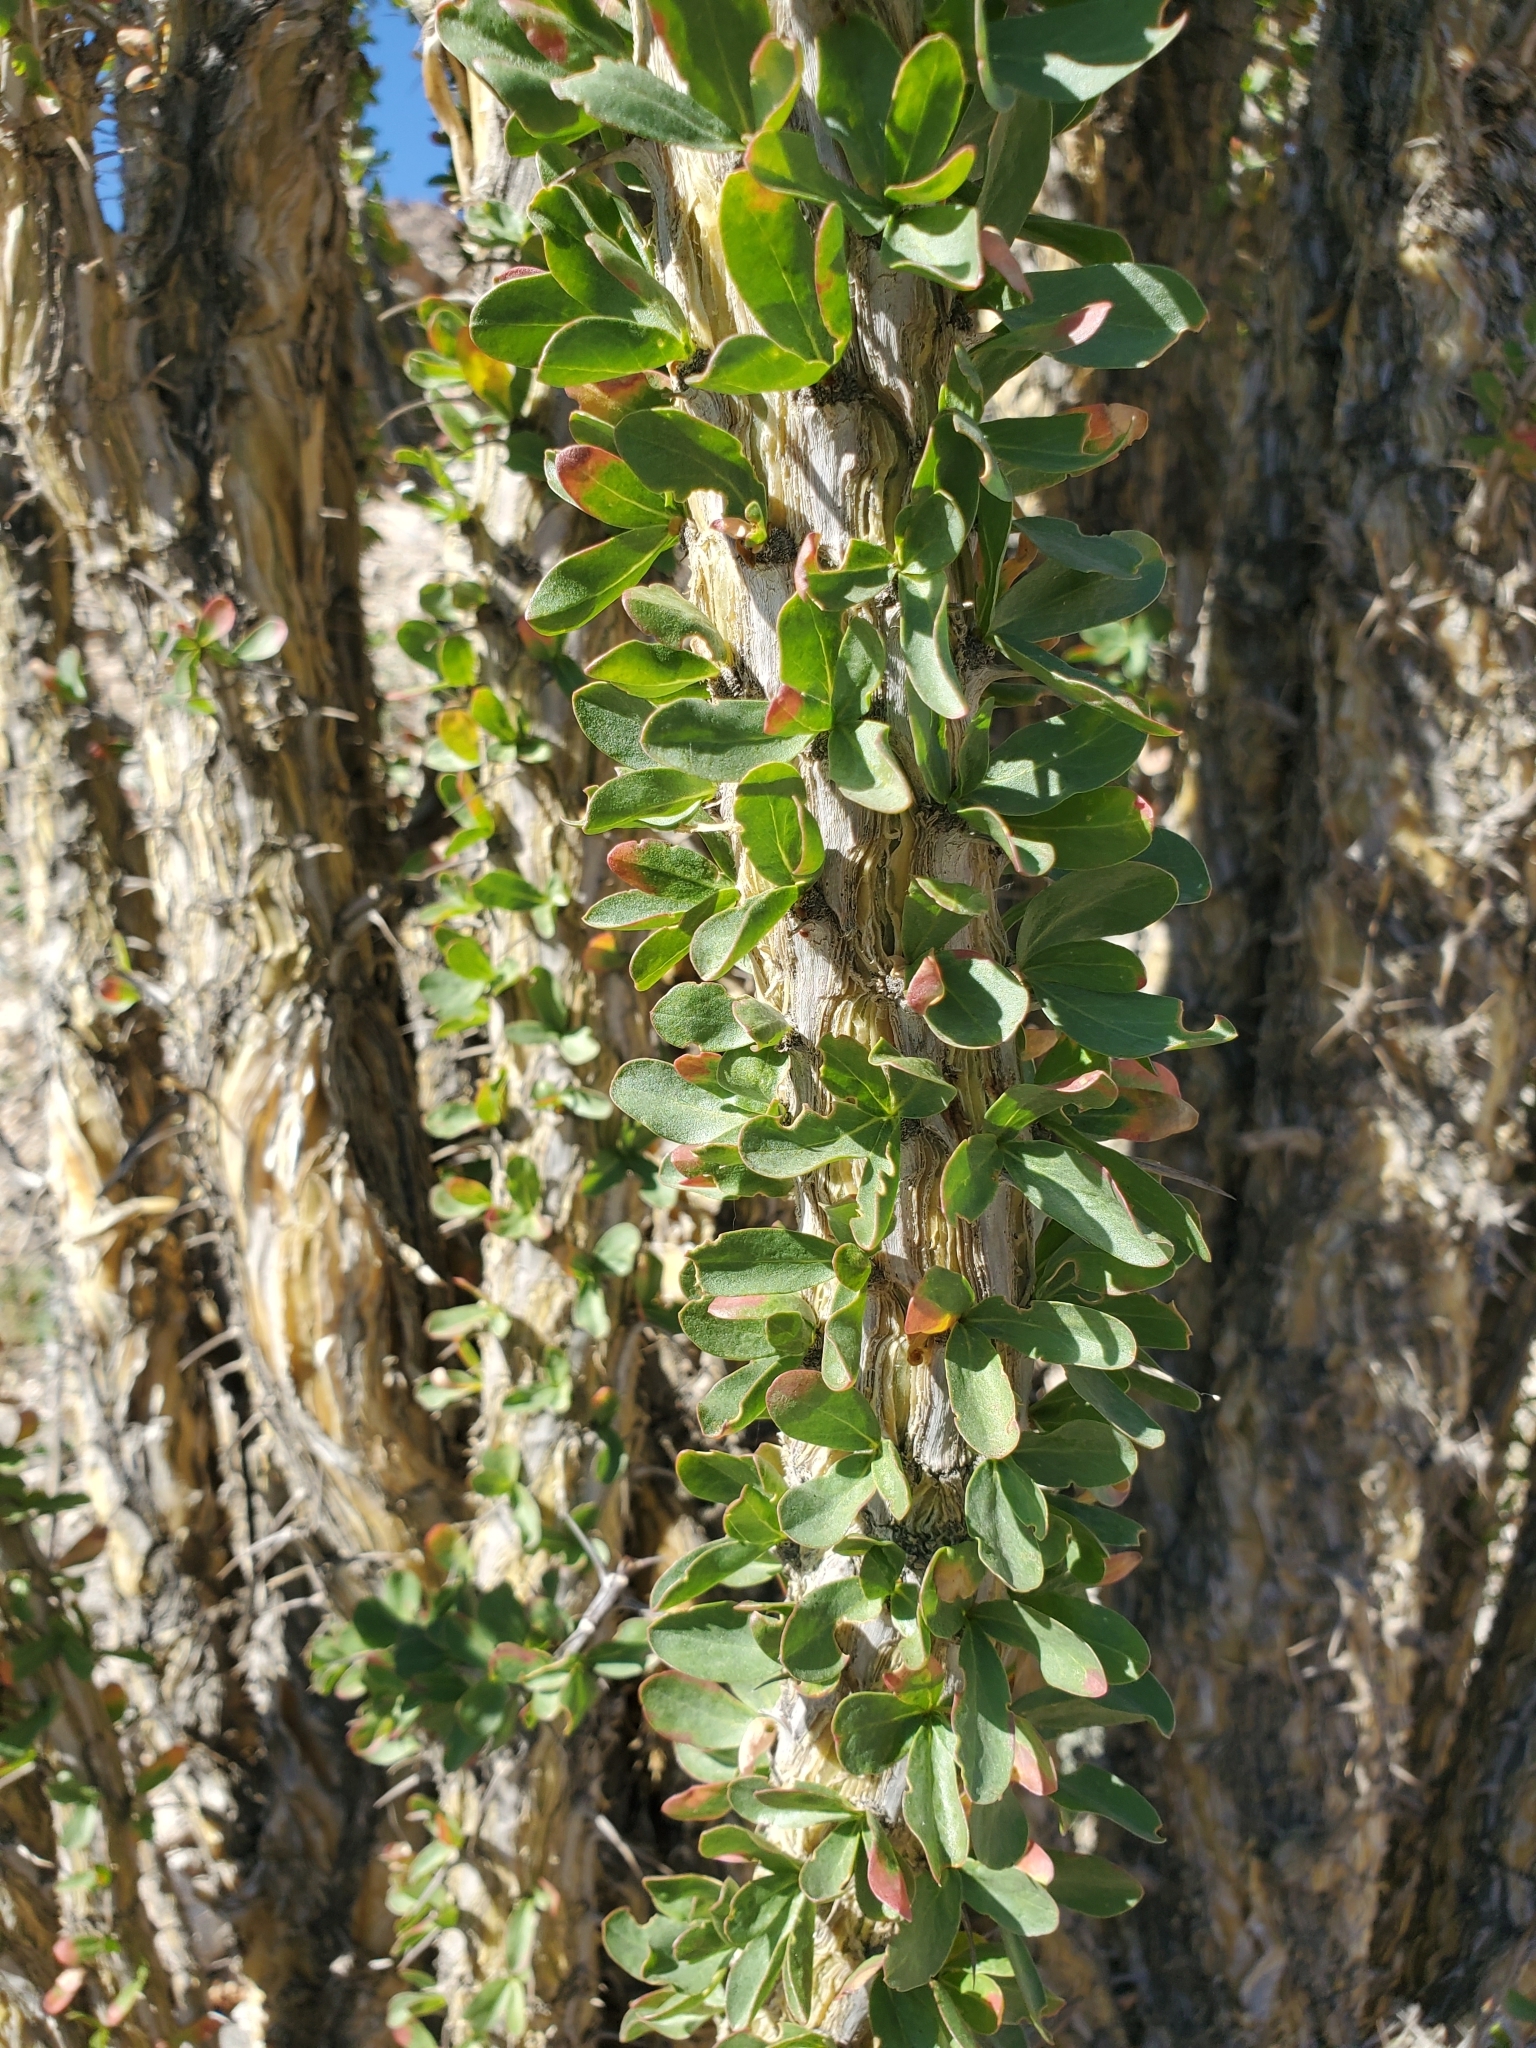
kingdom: Plantae
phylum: Tracheophyta
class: Magnoliopsida
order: Ericales
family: Fouquieriaceae
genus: Fouquieria
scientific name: Fouquieria splendens
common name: Vine-cactus
